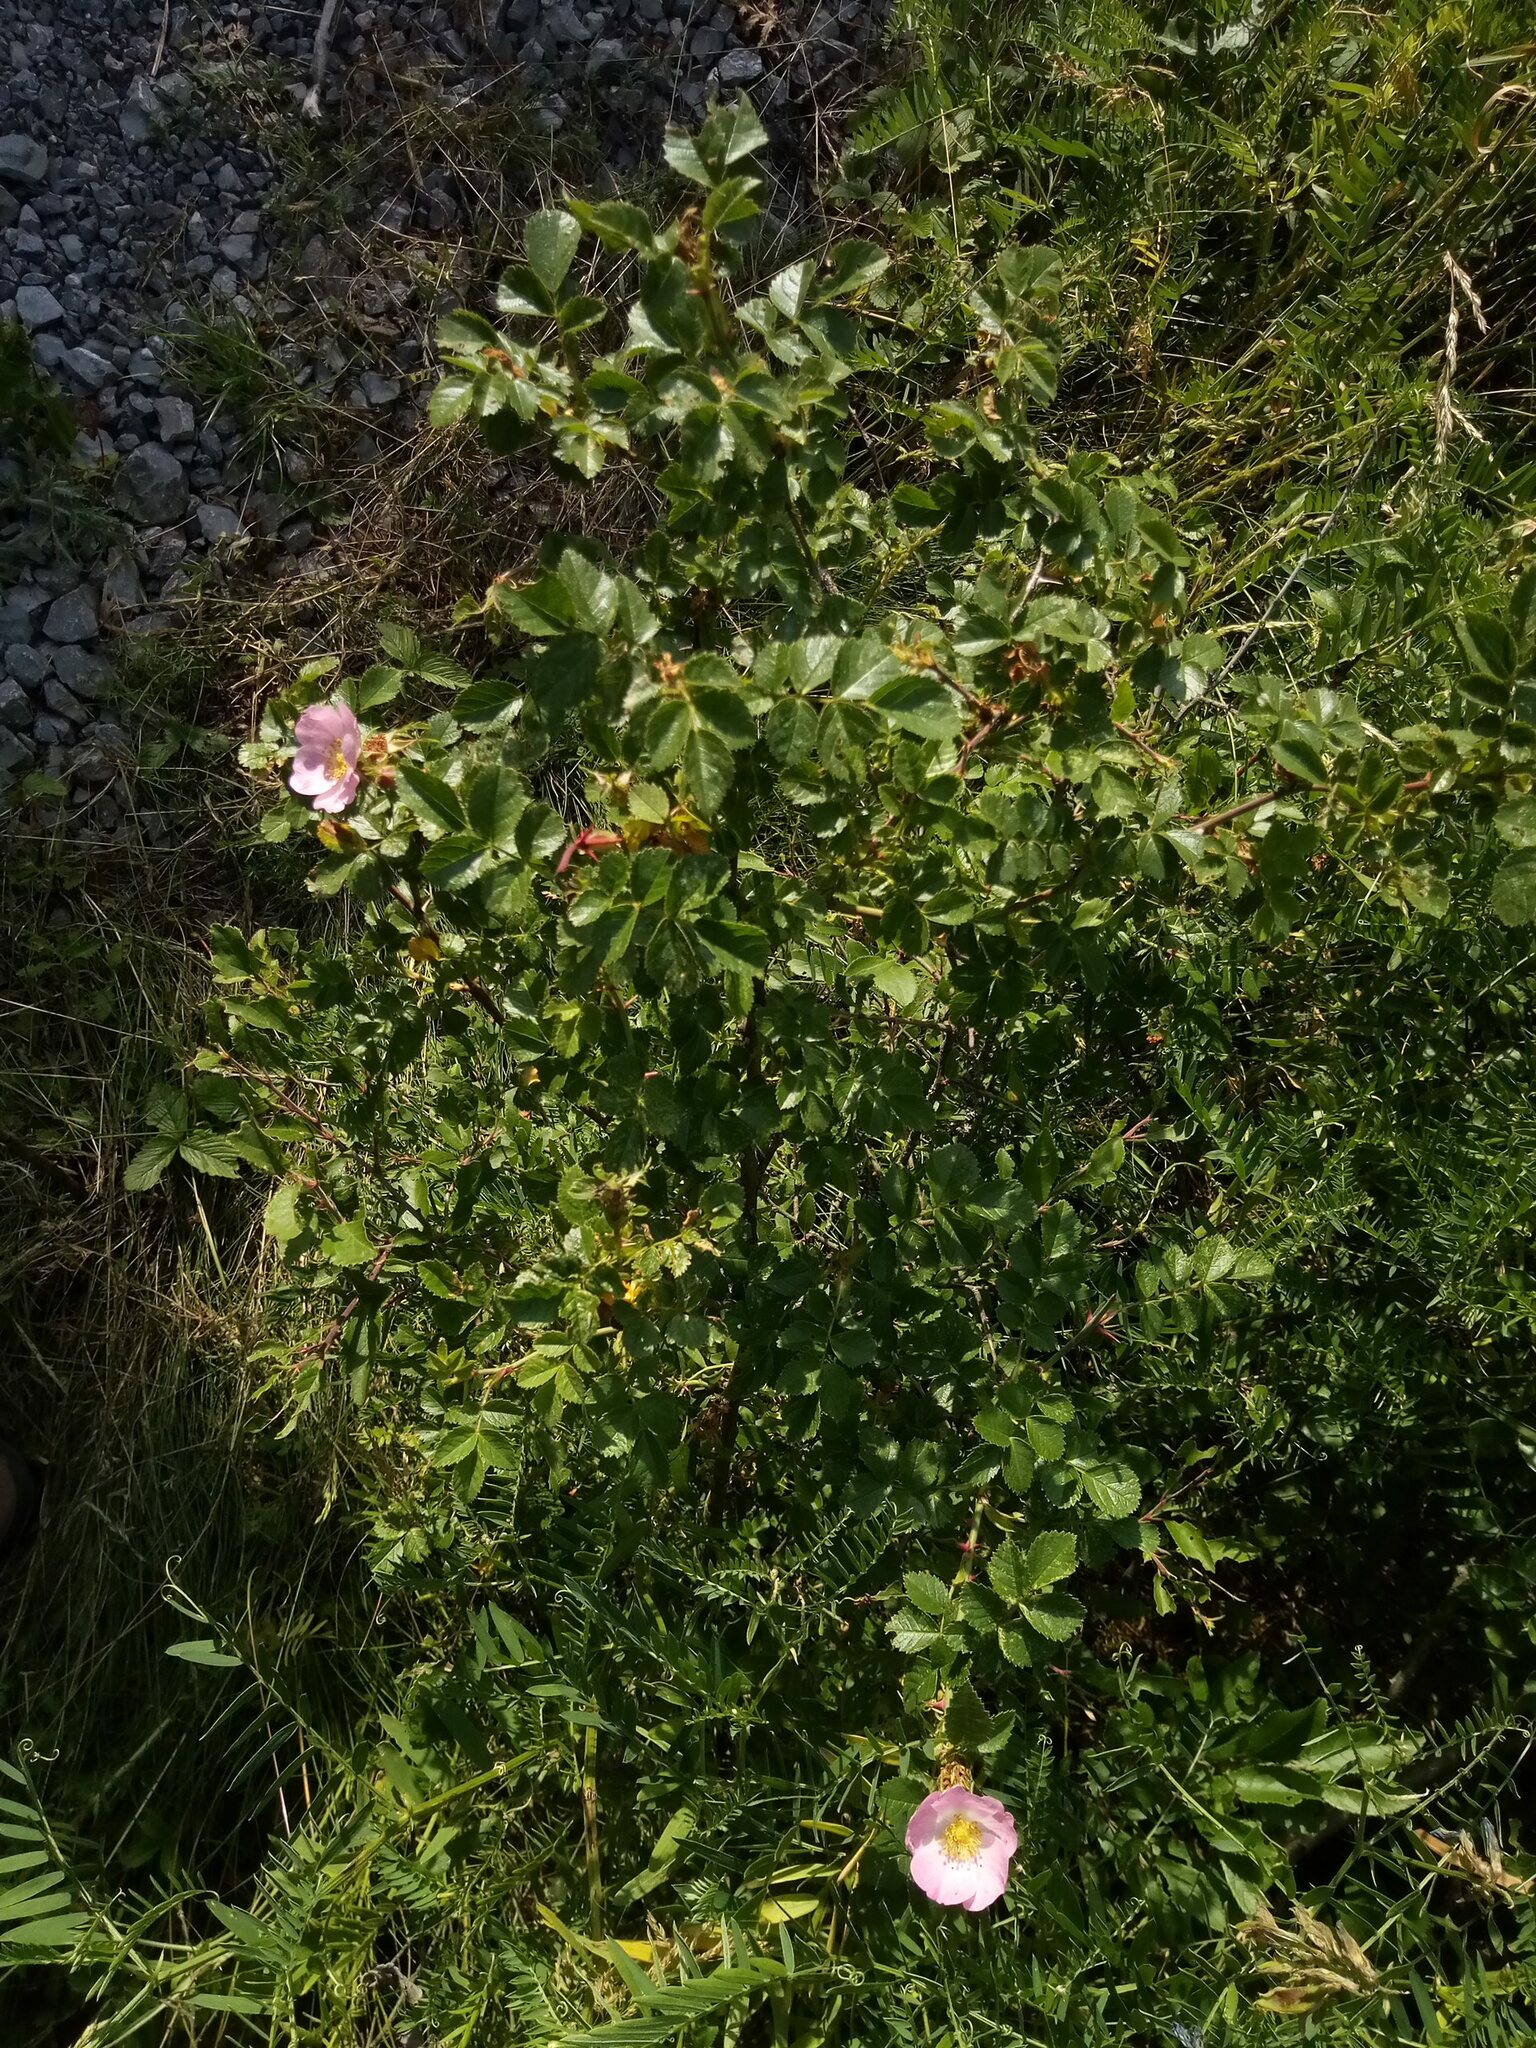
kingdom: Plantae
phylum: Tracheophyta
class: Magnoliopsida
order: Rosales
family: Rosaceae
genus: Rosa
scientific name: Rosa rubiginosa
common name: Sweet-briar
